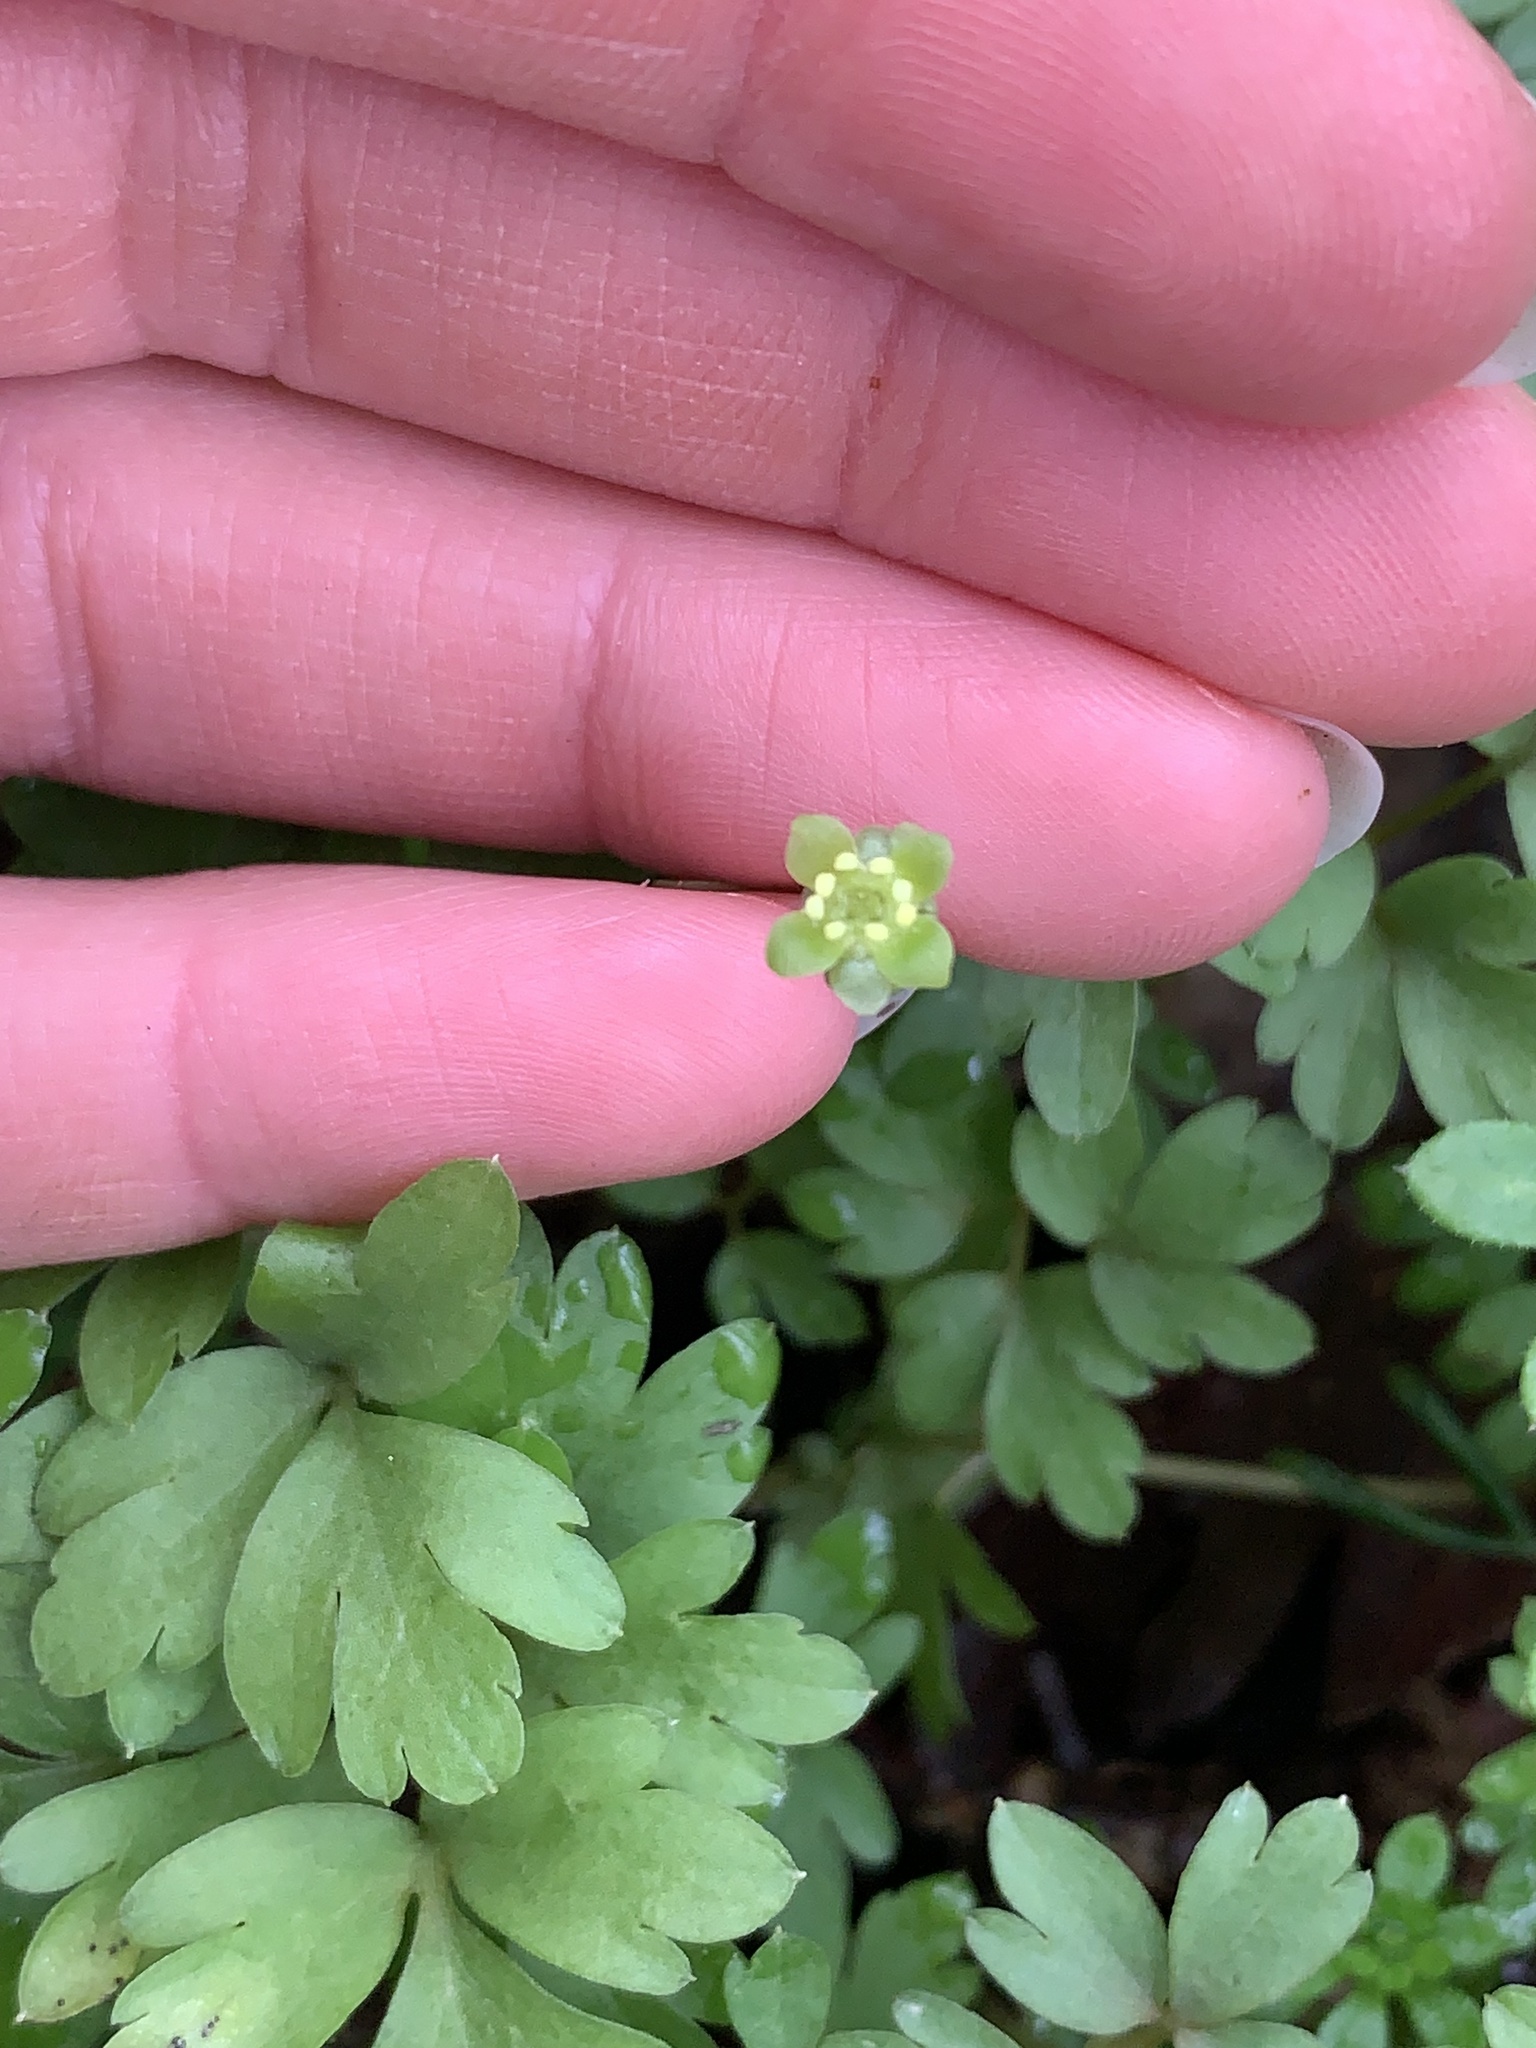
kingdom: Plantae
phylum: Tracheophyta
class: Magnoliopsida
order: Dipsacales
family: Viburnaceae
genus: Adoxa
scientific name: Adoxa moschatellina
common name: Moschatel
